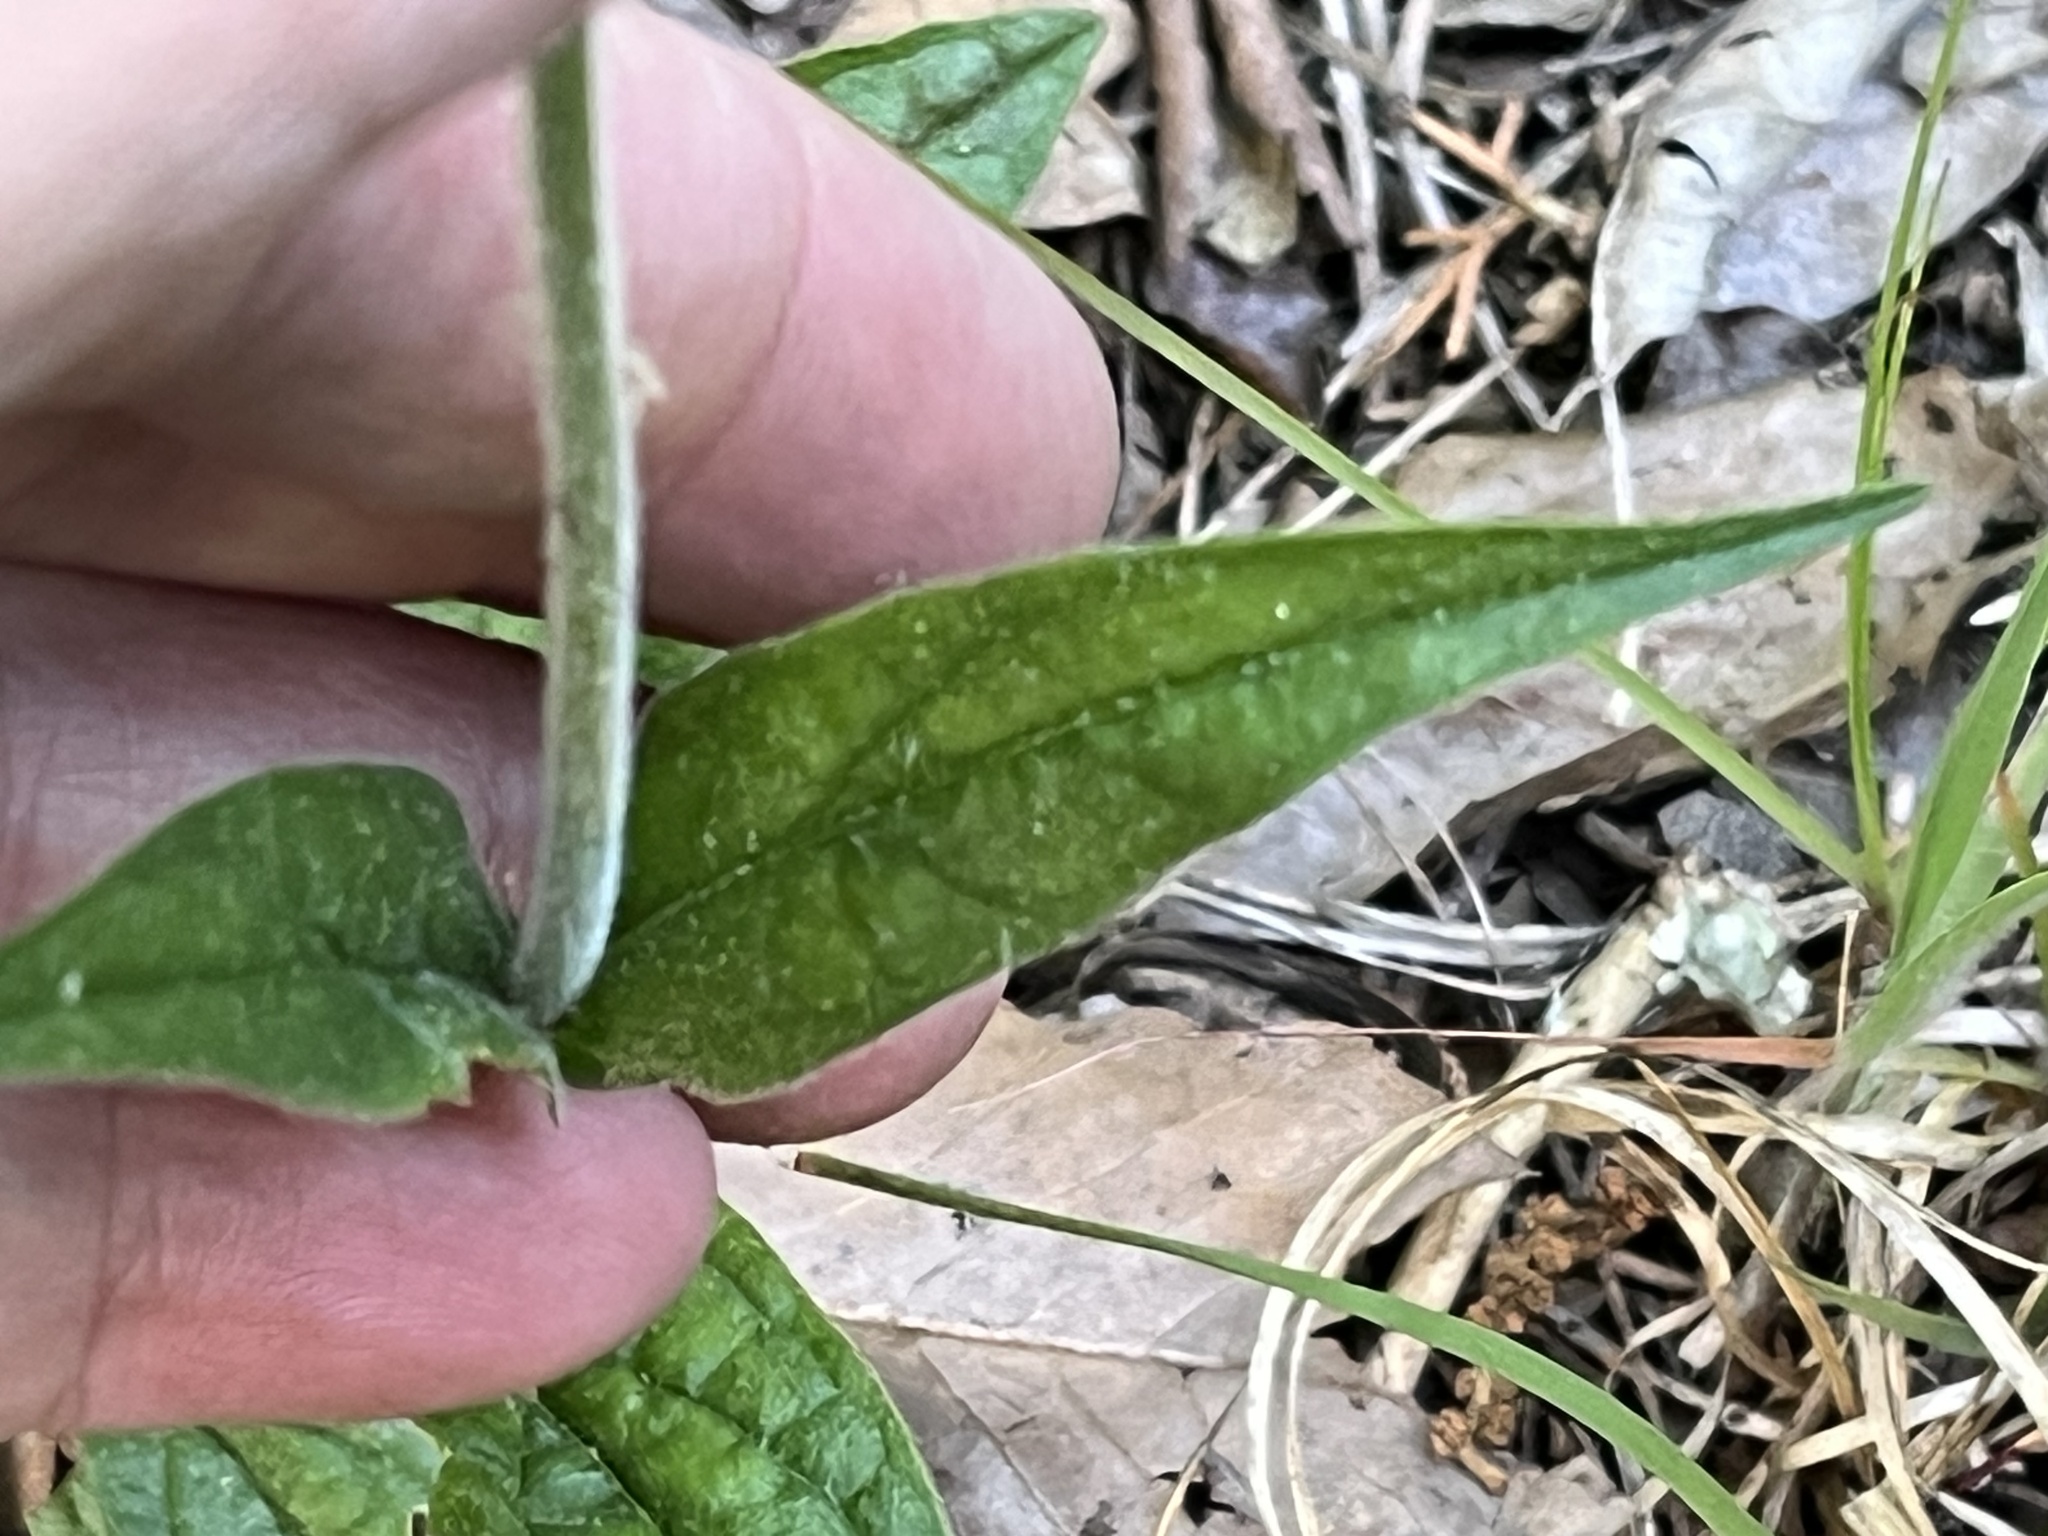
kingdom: Plantae
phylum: Tracheophyta
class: Magnoliopsida
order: Lamiales
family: Plantaginaceae
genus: Penstemon
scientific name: Penstemon tenuiflorus
